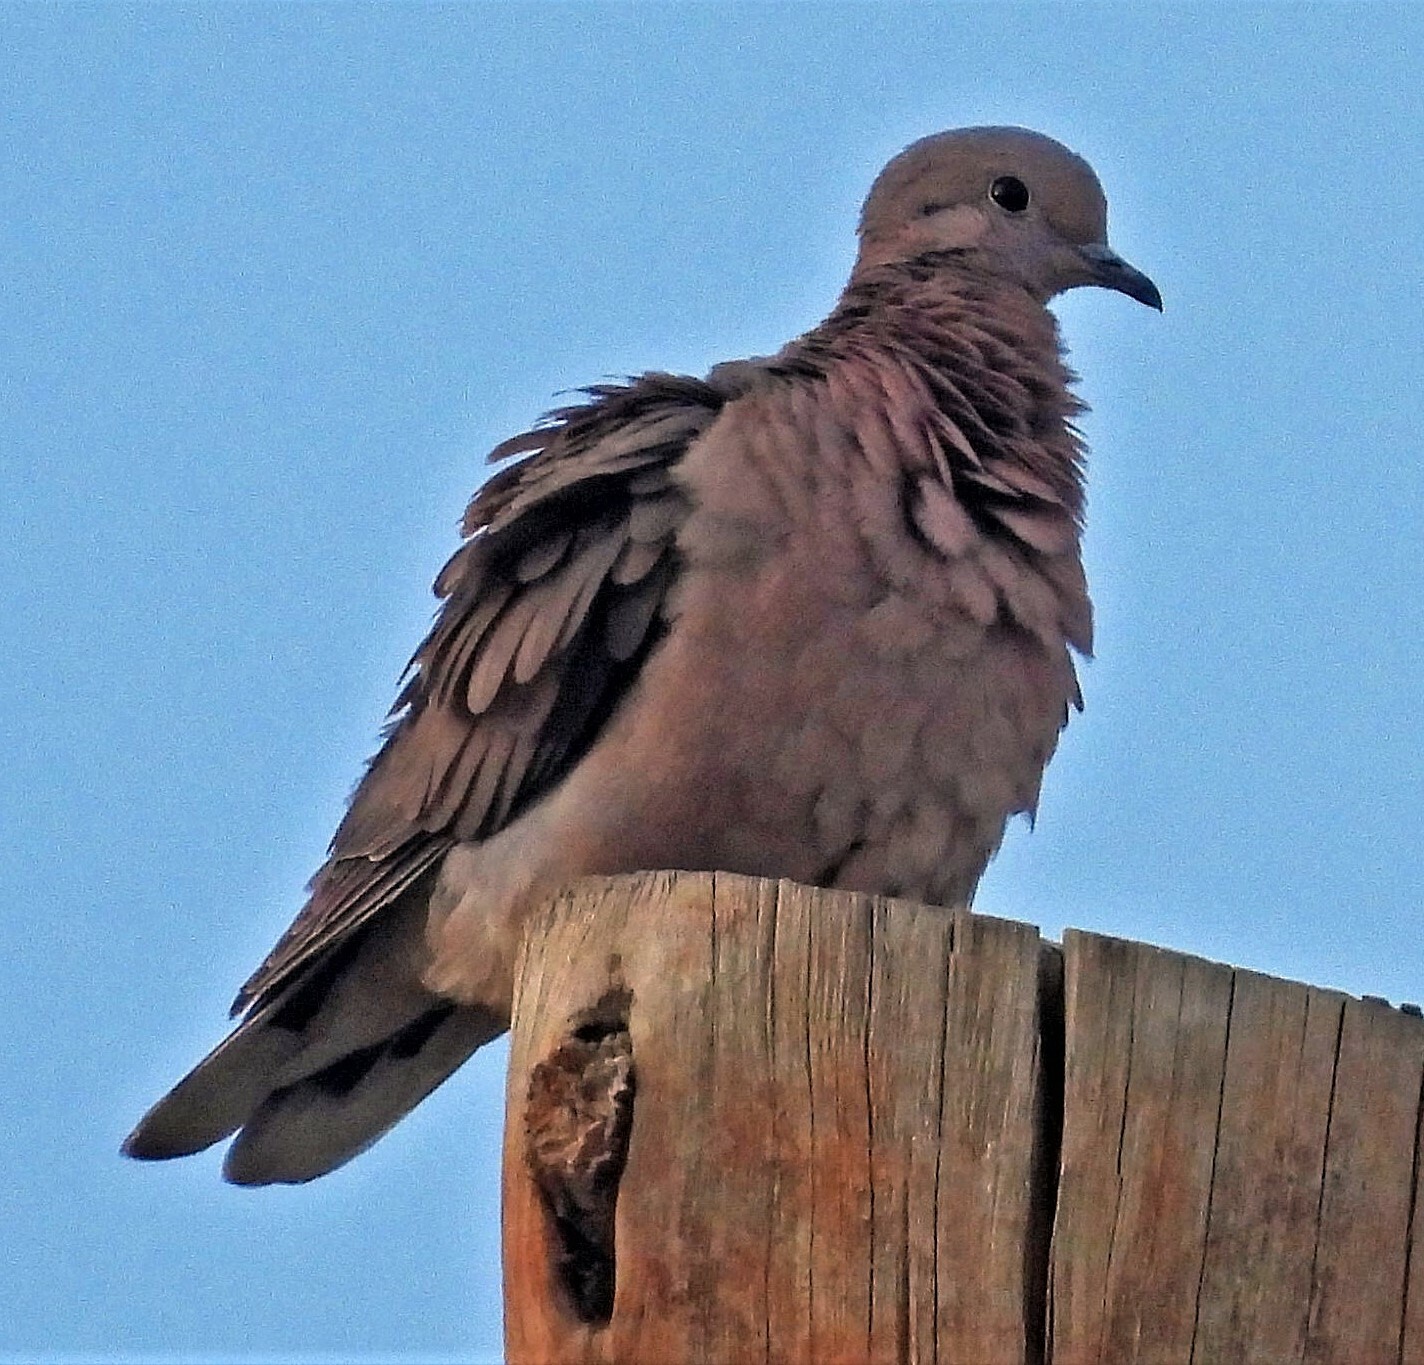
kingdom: Animalia
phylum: Chordata
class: Aves
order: Columbiformes
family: Columbidae
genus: Zenaida
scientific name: Zenaida auriculata
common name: Eared dove
